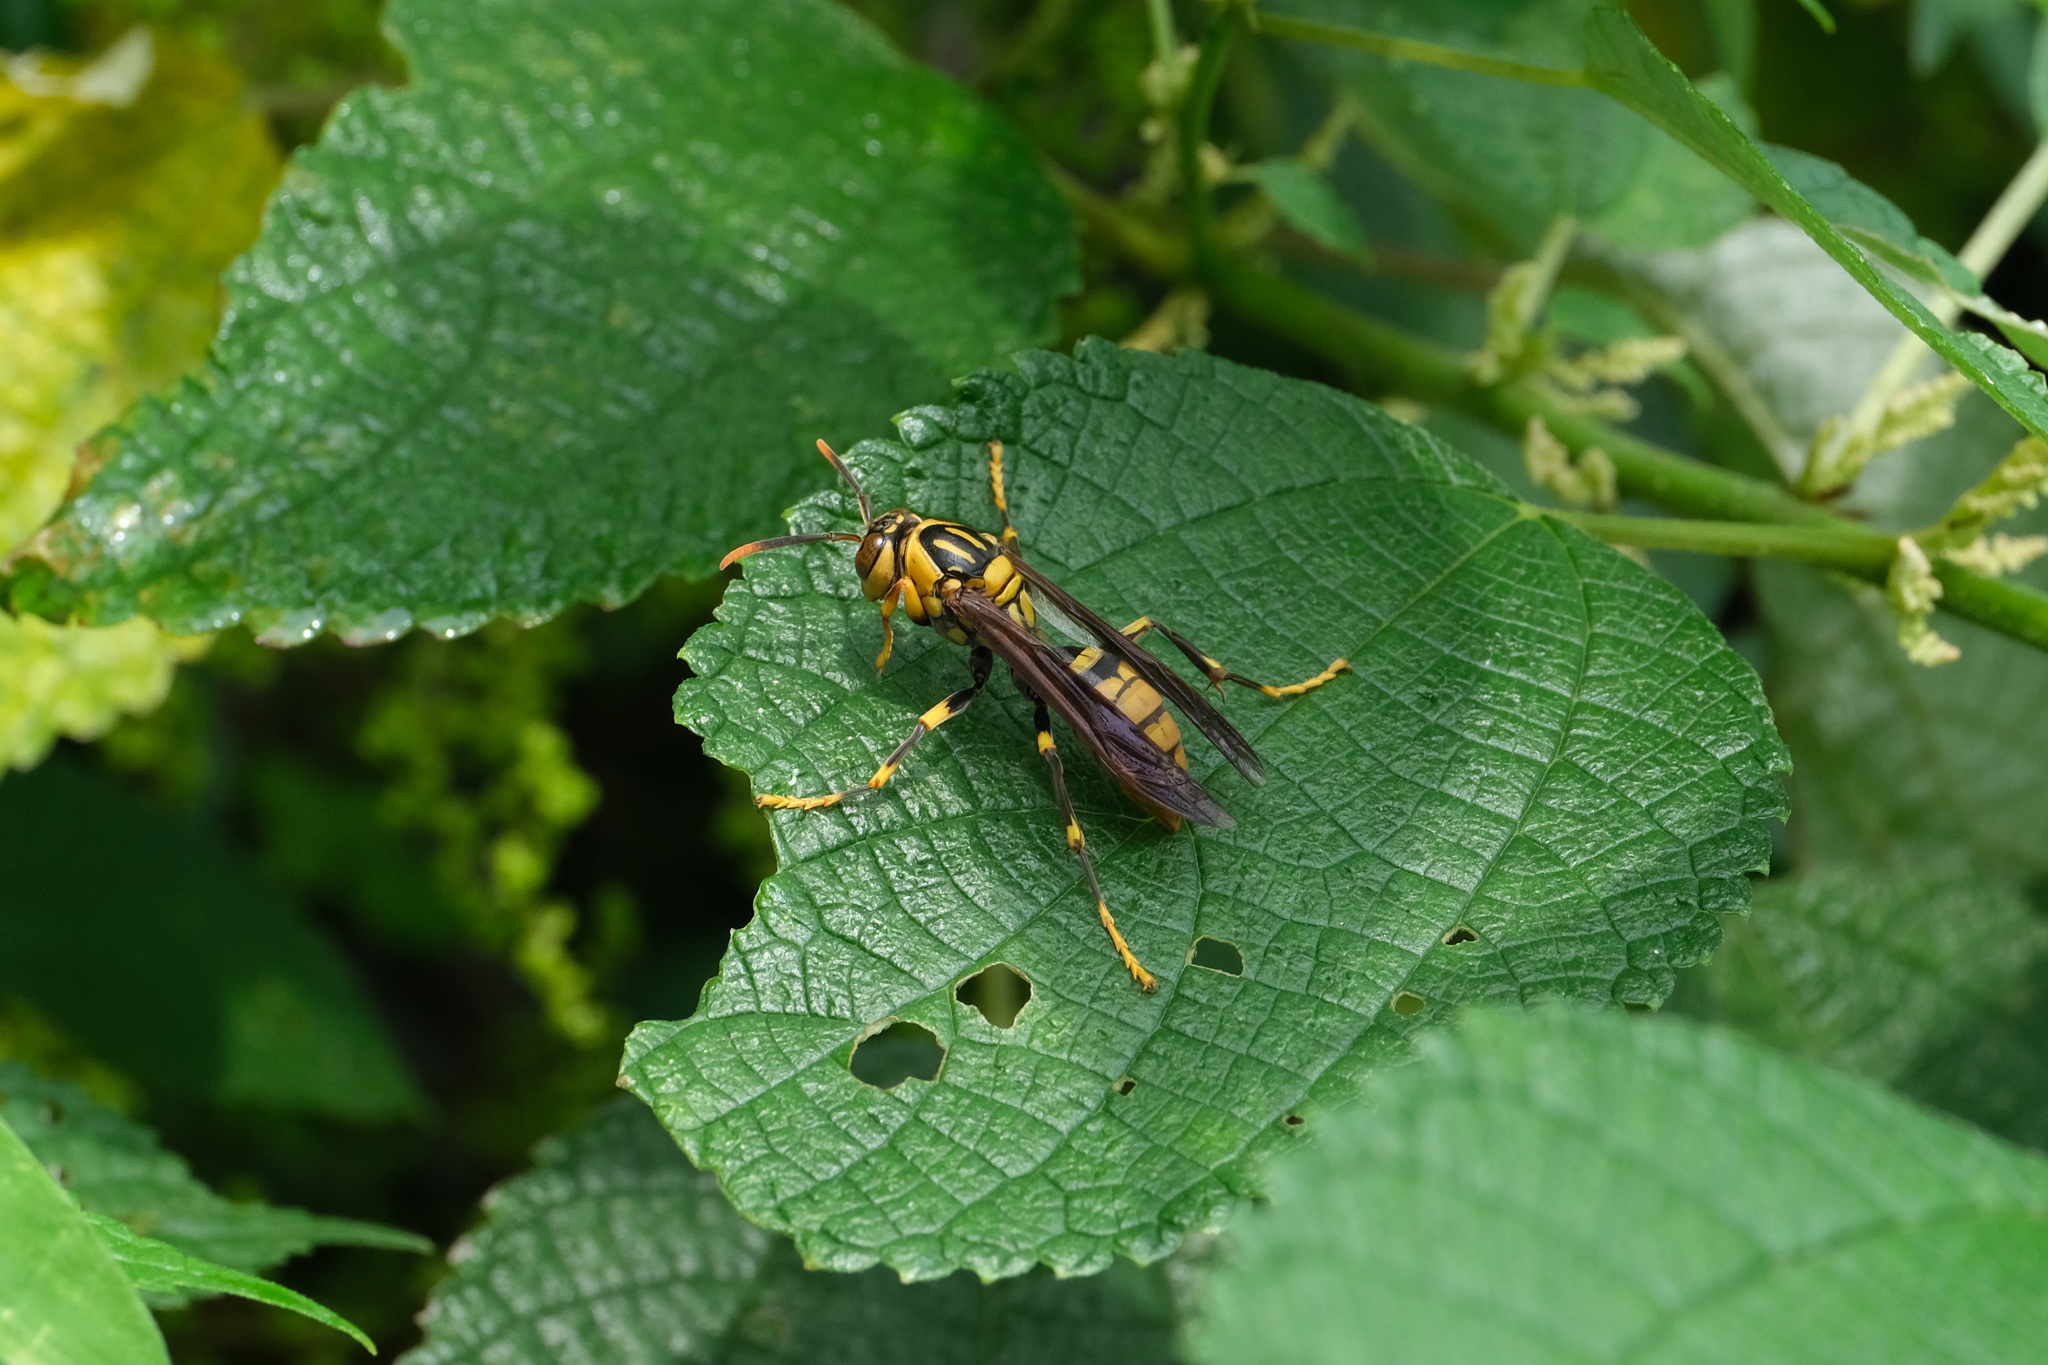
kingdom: Animalia
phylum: Arthropoda
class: Insecta
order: Hymenoptera
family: Eumenidae
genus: Polistes
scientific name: Polistes rothneyi
